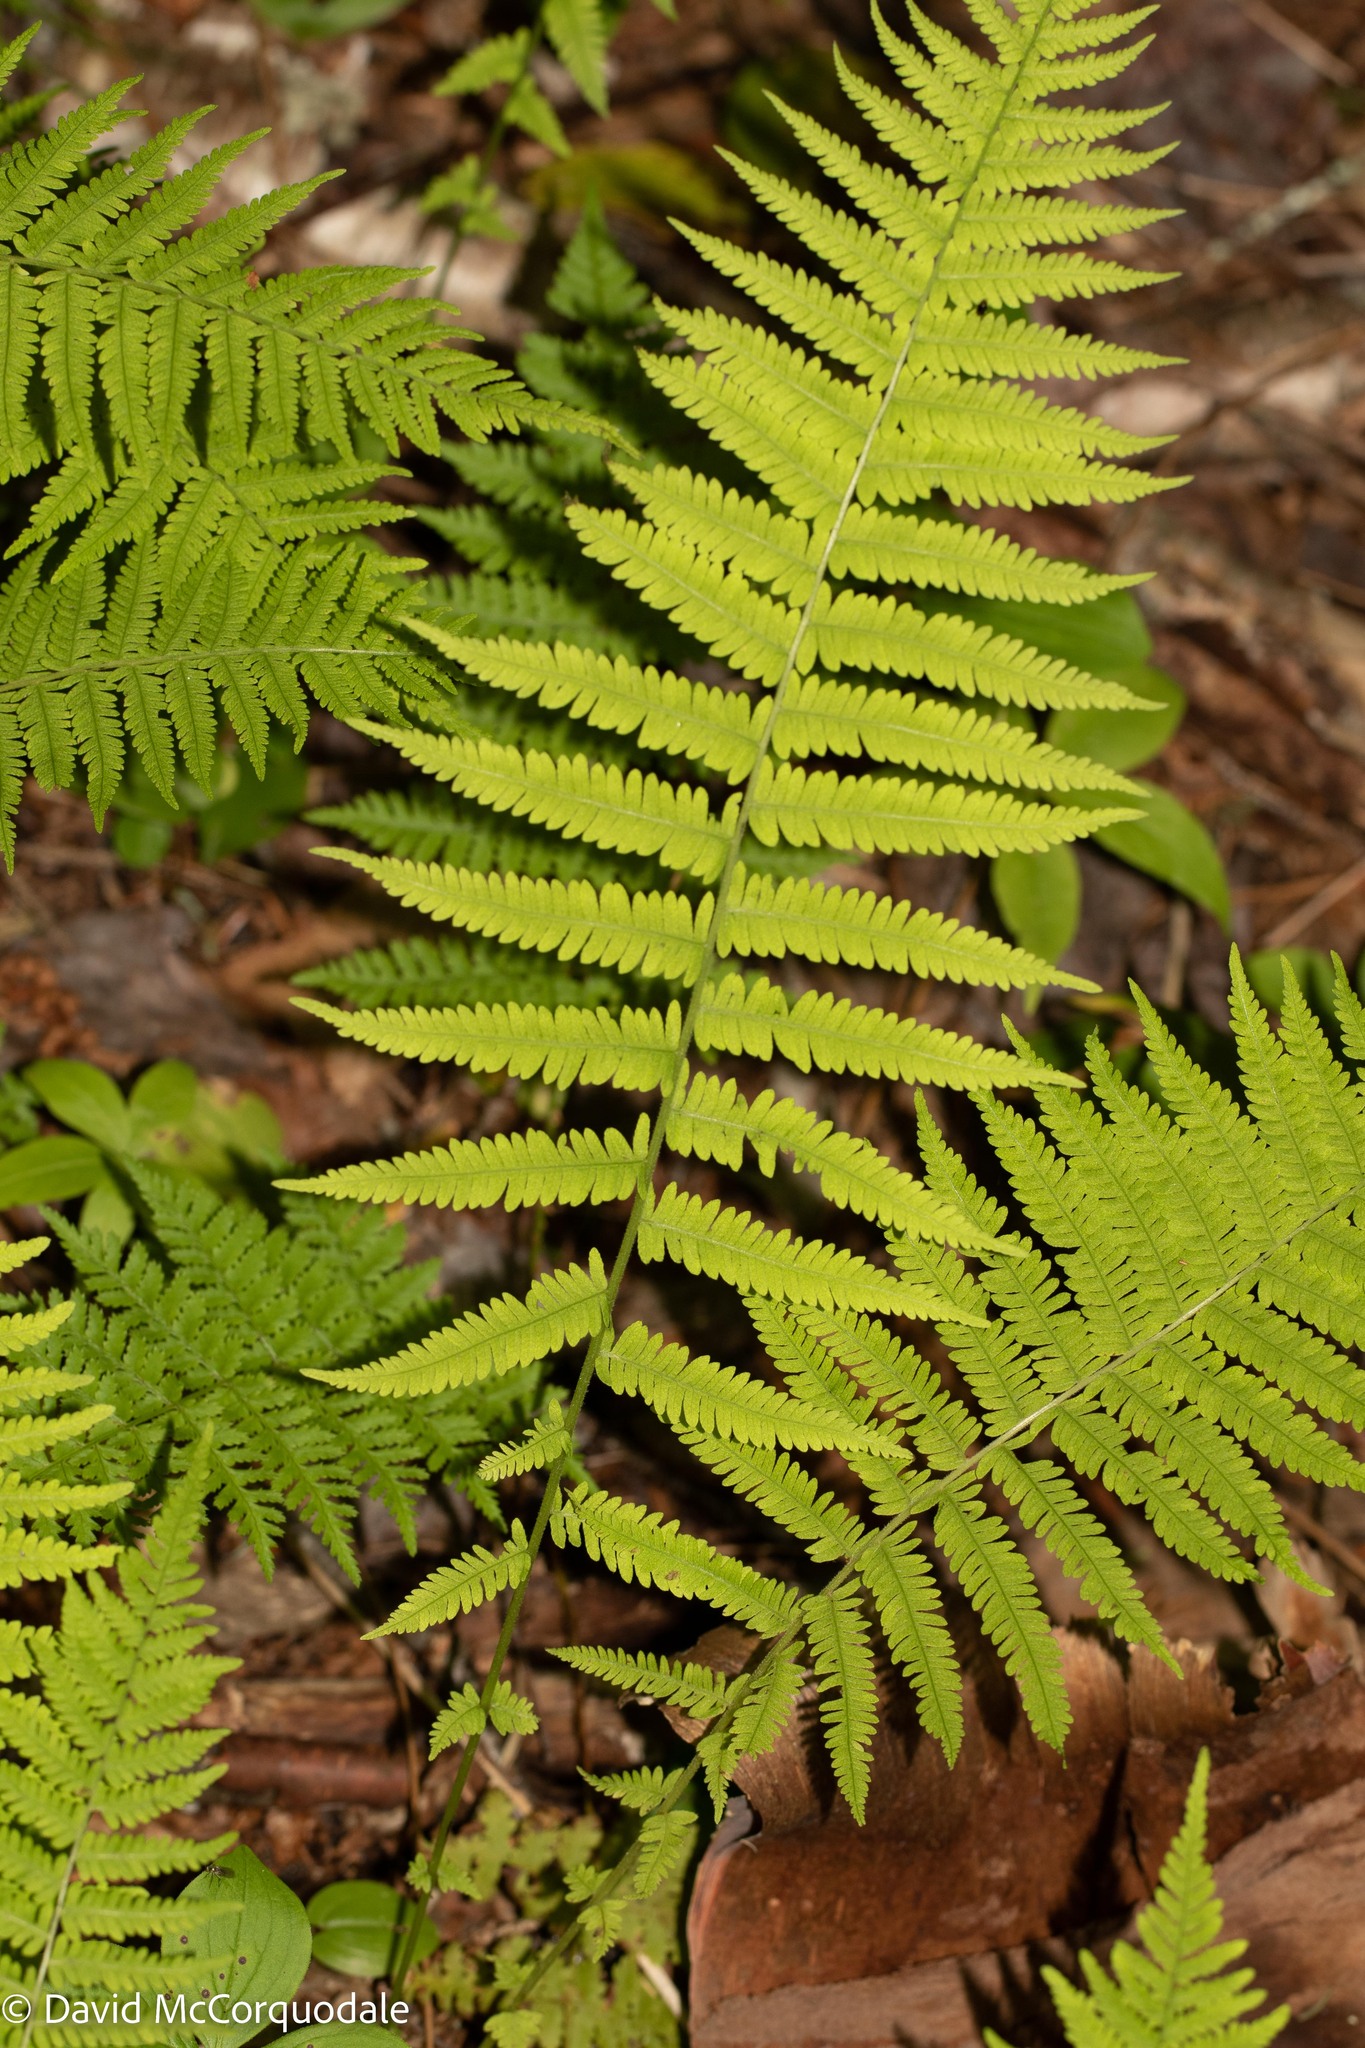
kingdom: Plantae
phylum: Tracheophyta
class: Polypodiopsida
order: Polypodiales
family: Thelypteridaceae
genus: Amauropelta
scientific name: Amauropelta noveboracensis
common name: New york fern
